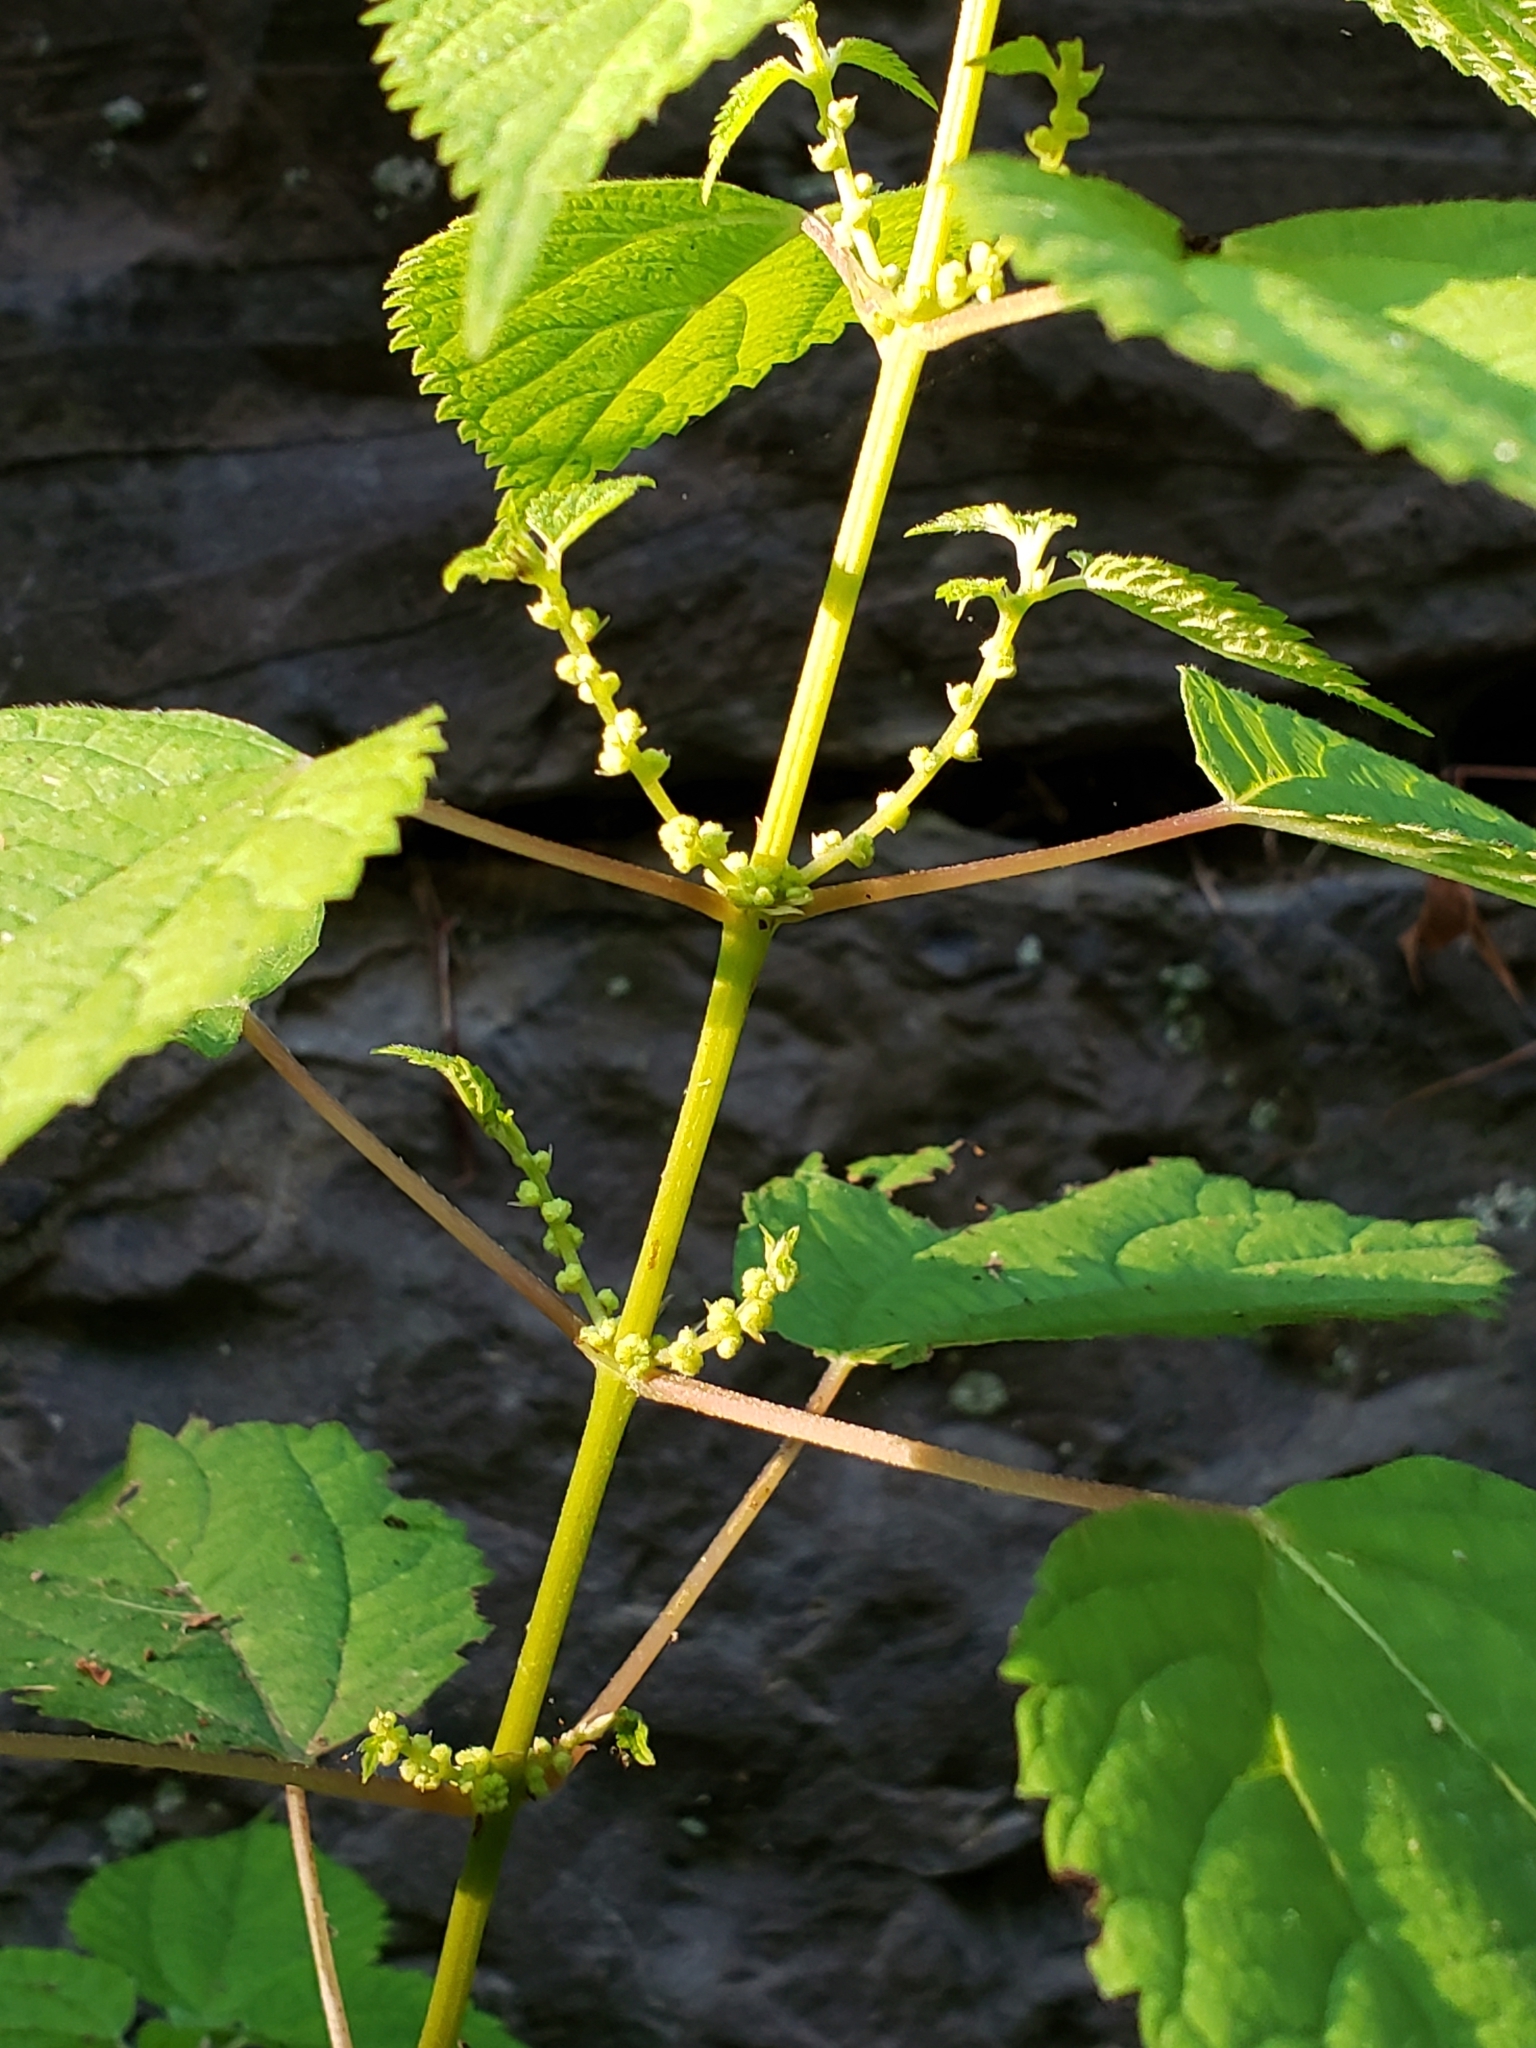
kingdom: Plantae
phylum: Tracheophyta
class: Magnoliopsida
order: Rosales
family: Urticaceae
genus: Boehmeria
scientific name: Boehmeria cylindrica
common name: Bog-hemp
